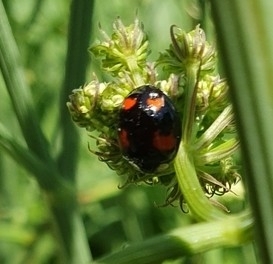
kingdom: Animalia
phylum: Arthropoda
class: Insecta
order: Coleoptera
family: Coccinellidae
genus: Harmonia
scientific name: Harmonia axyridis
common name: Harlequin ladybird
